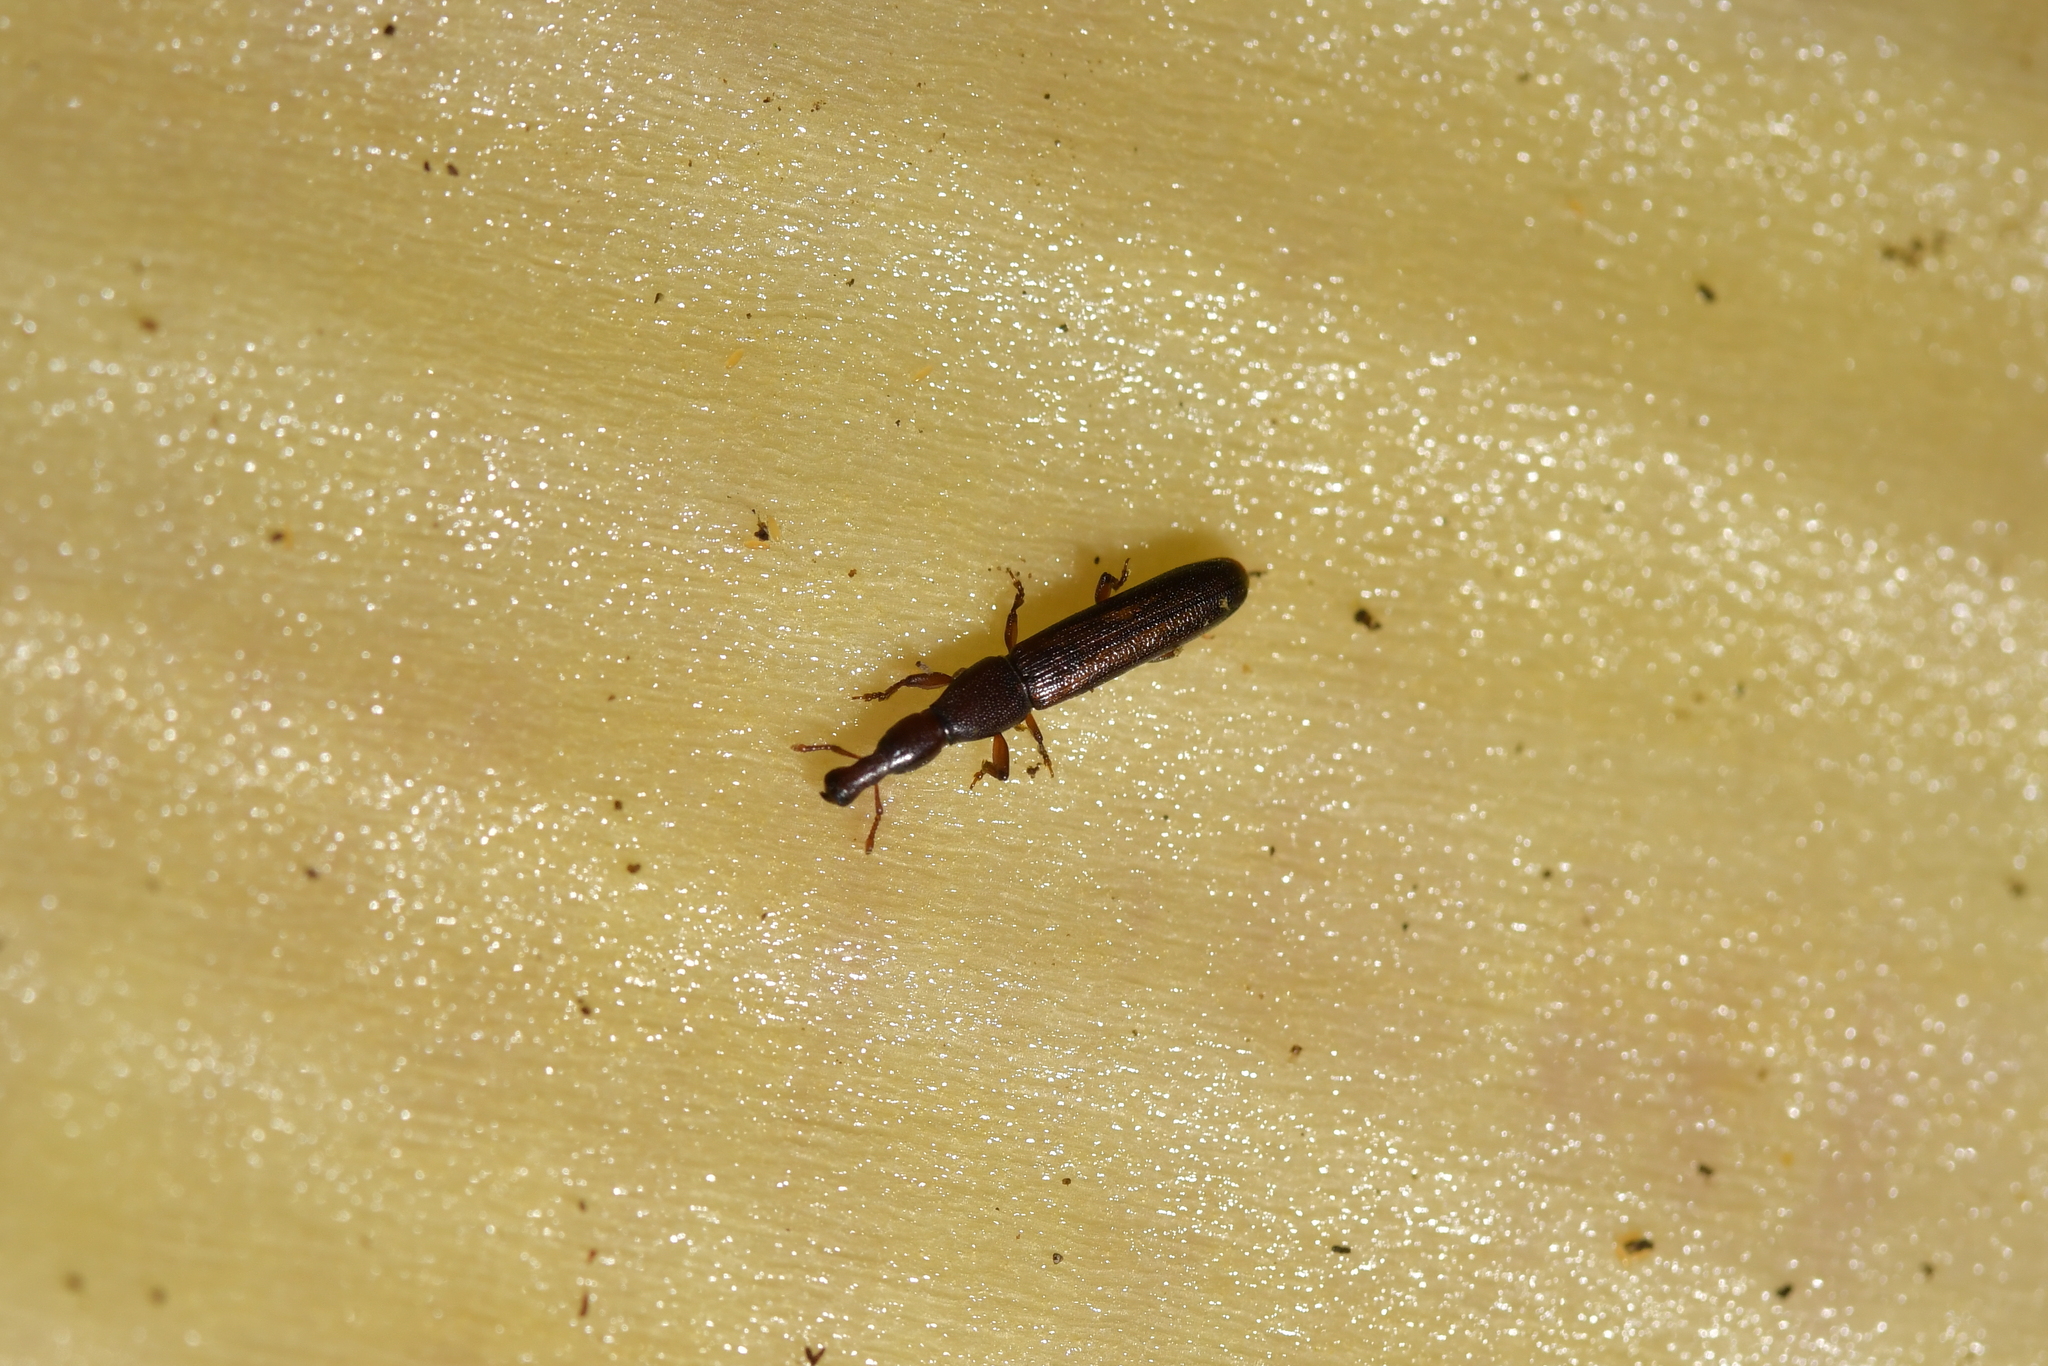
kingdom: Animalia
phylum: Arthropoda
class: Insecta
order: Coleoptera
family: Curculionidae
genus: Stenotrupis
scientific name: Stenotrupis wollastoniana
